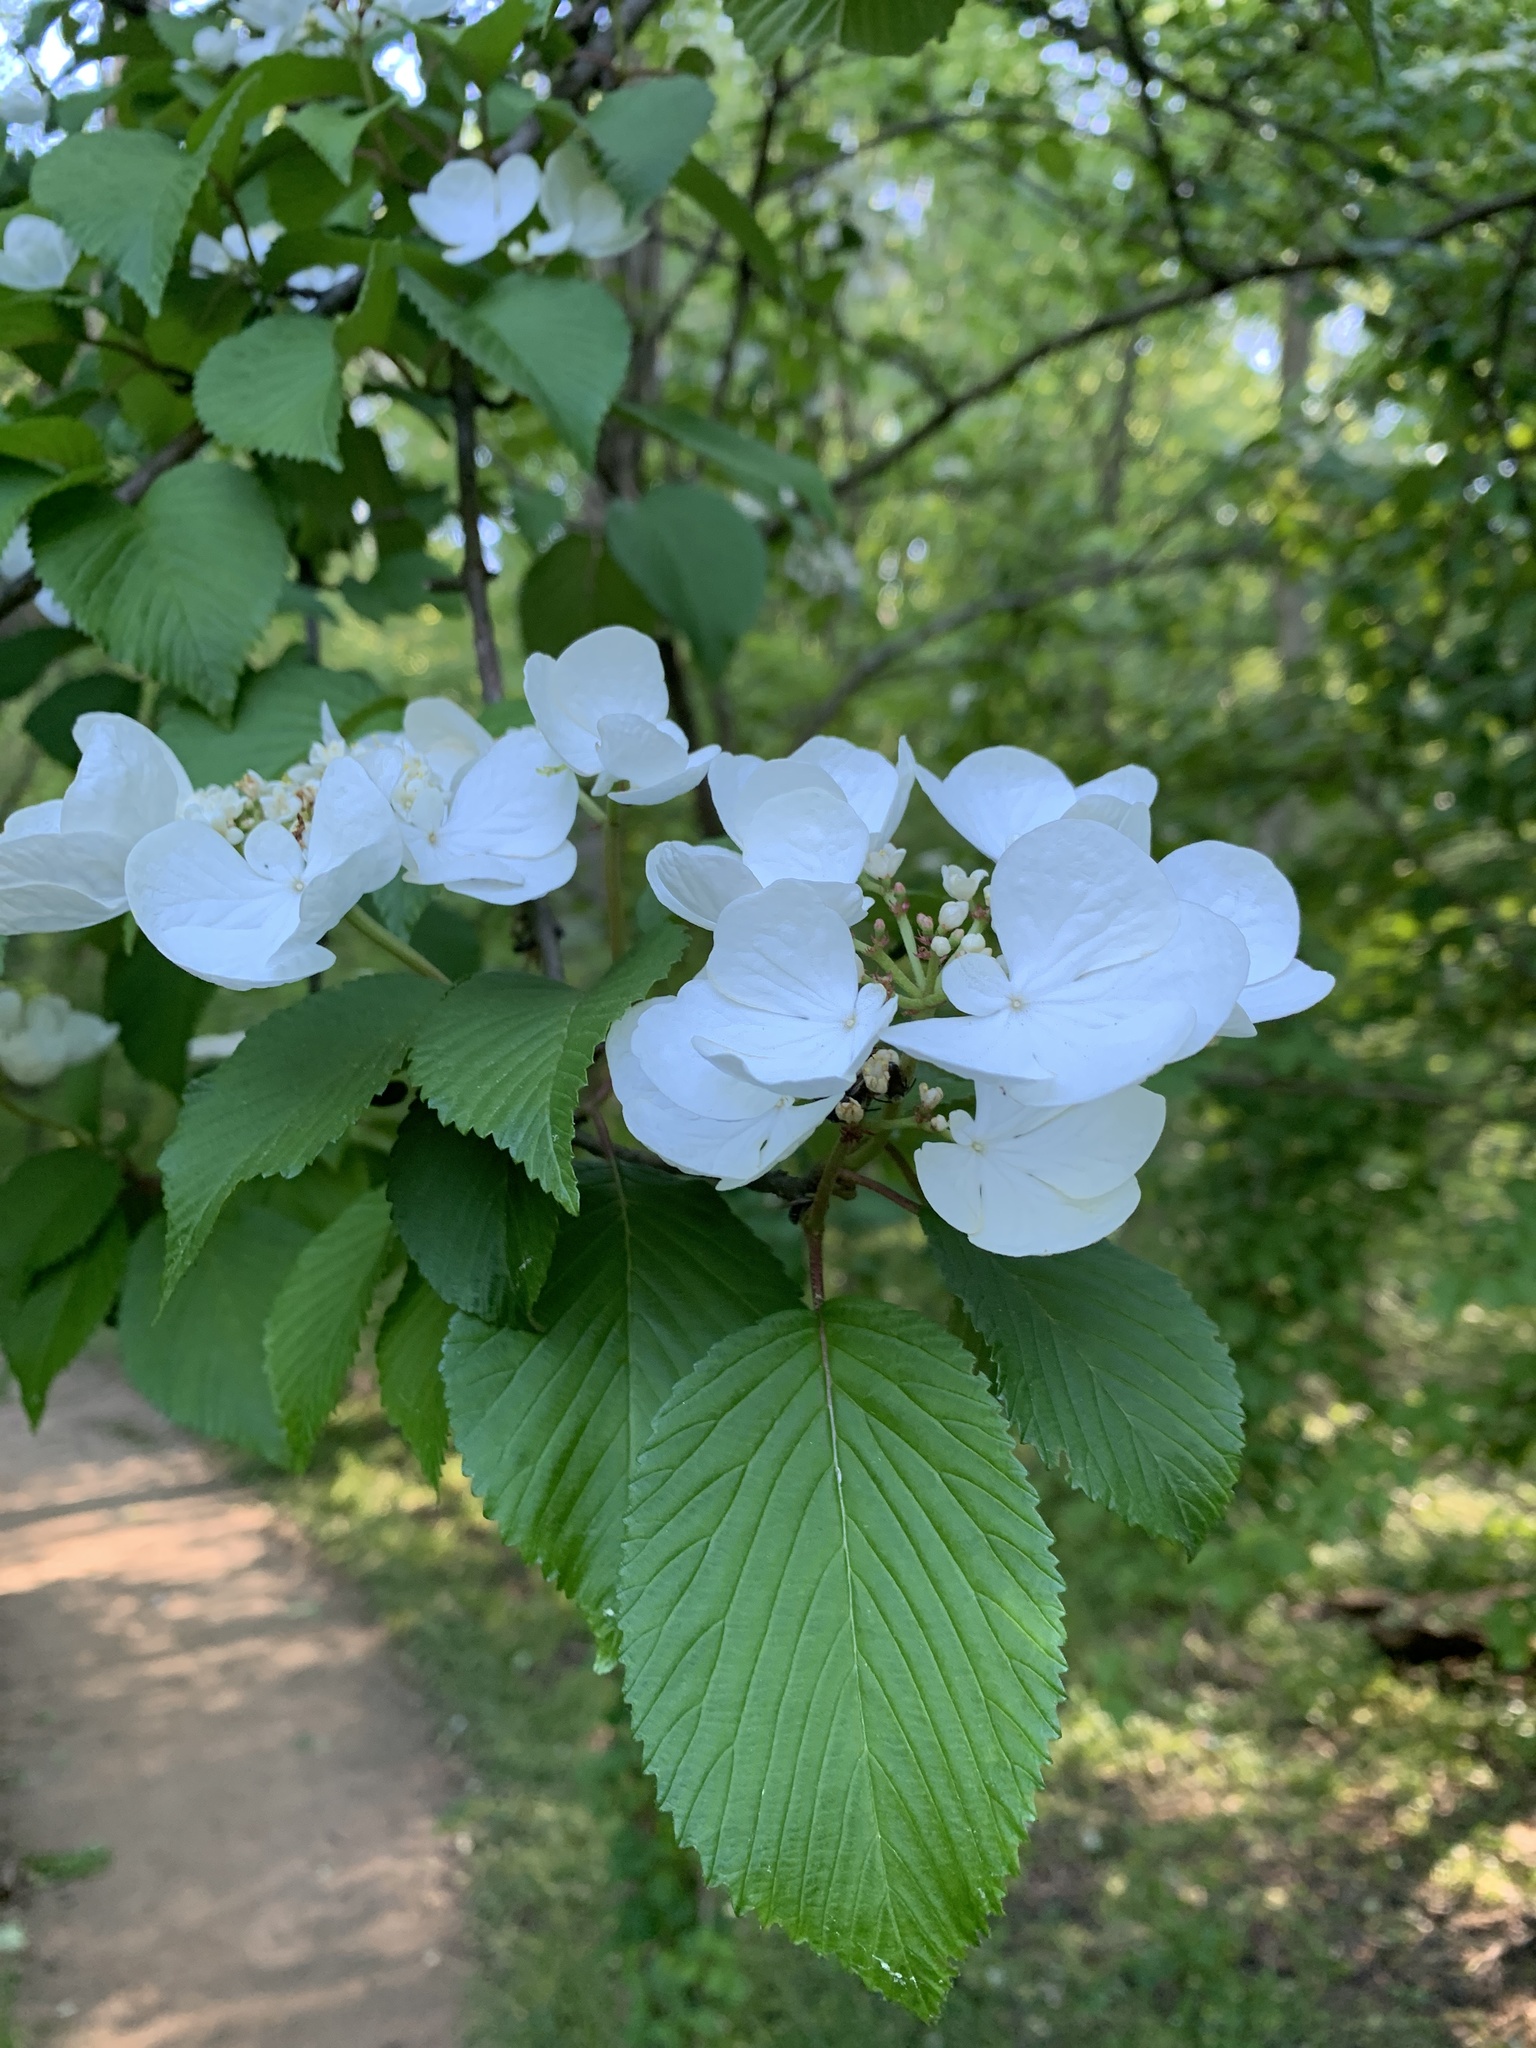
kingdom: Plantae
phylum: Tracheophyta
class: Magnoliopsida
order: Dipsacales
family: Viburnaceae
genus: Viburnum
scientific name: Viburnum plicatum
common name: Japanese snowball
